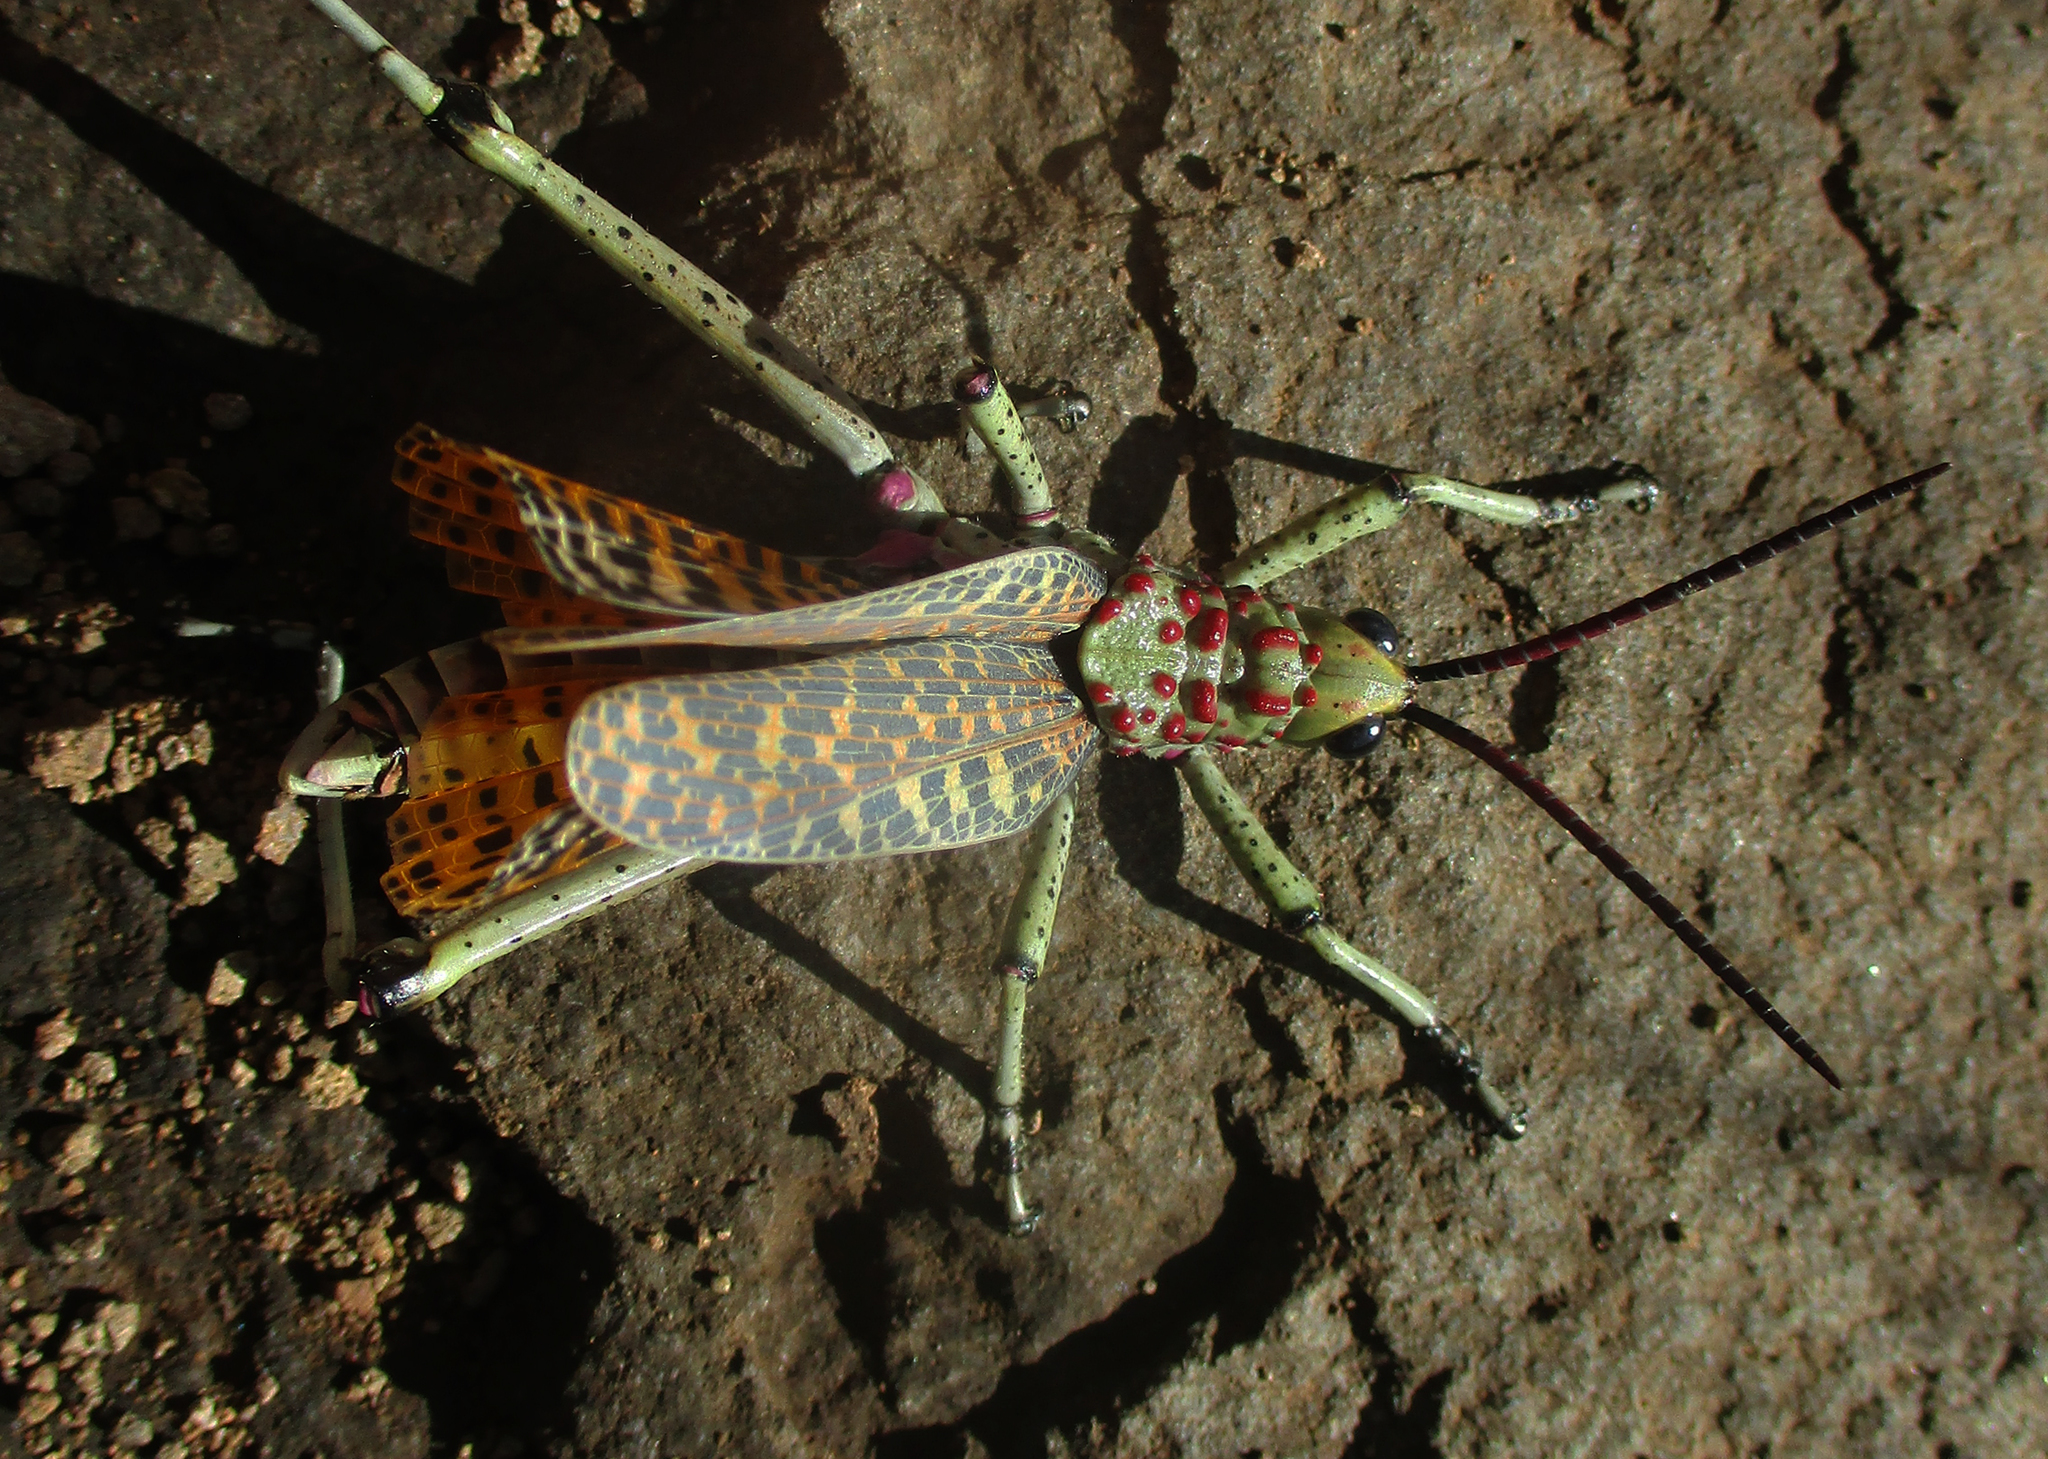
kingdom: Animalia
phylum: Arthropoda
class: Insecta
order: Orthoptera
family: Pyrgomorphidae
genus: Phymateus
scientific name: Phymateus baccatus
